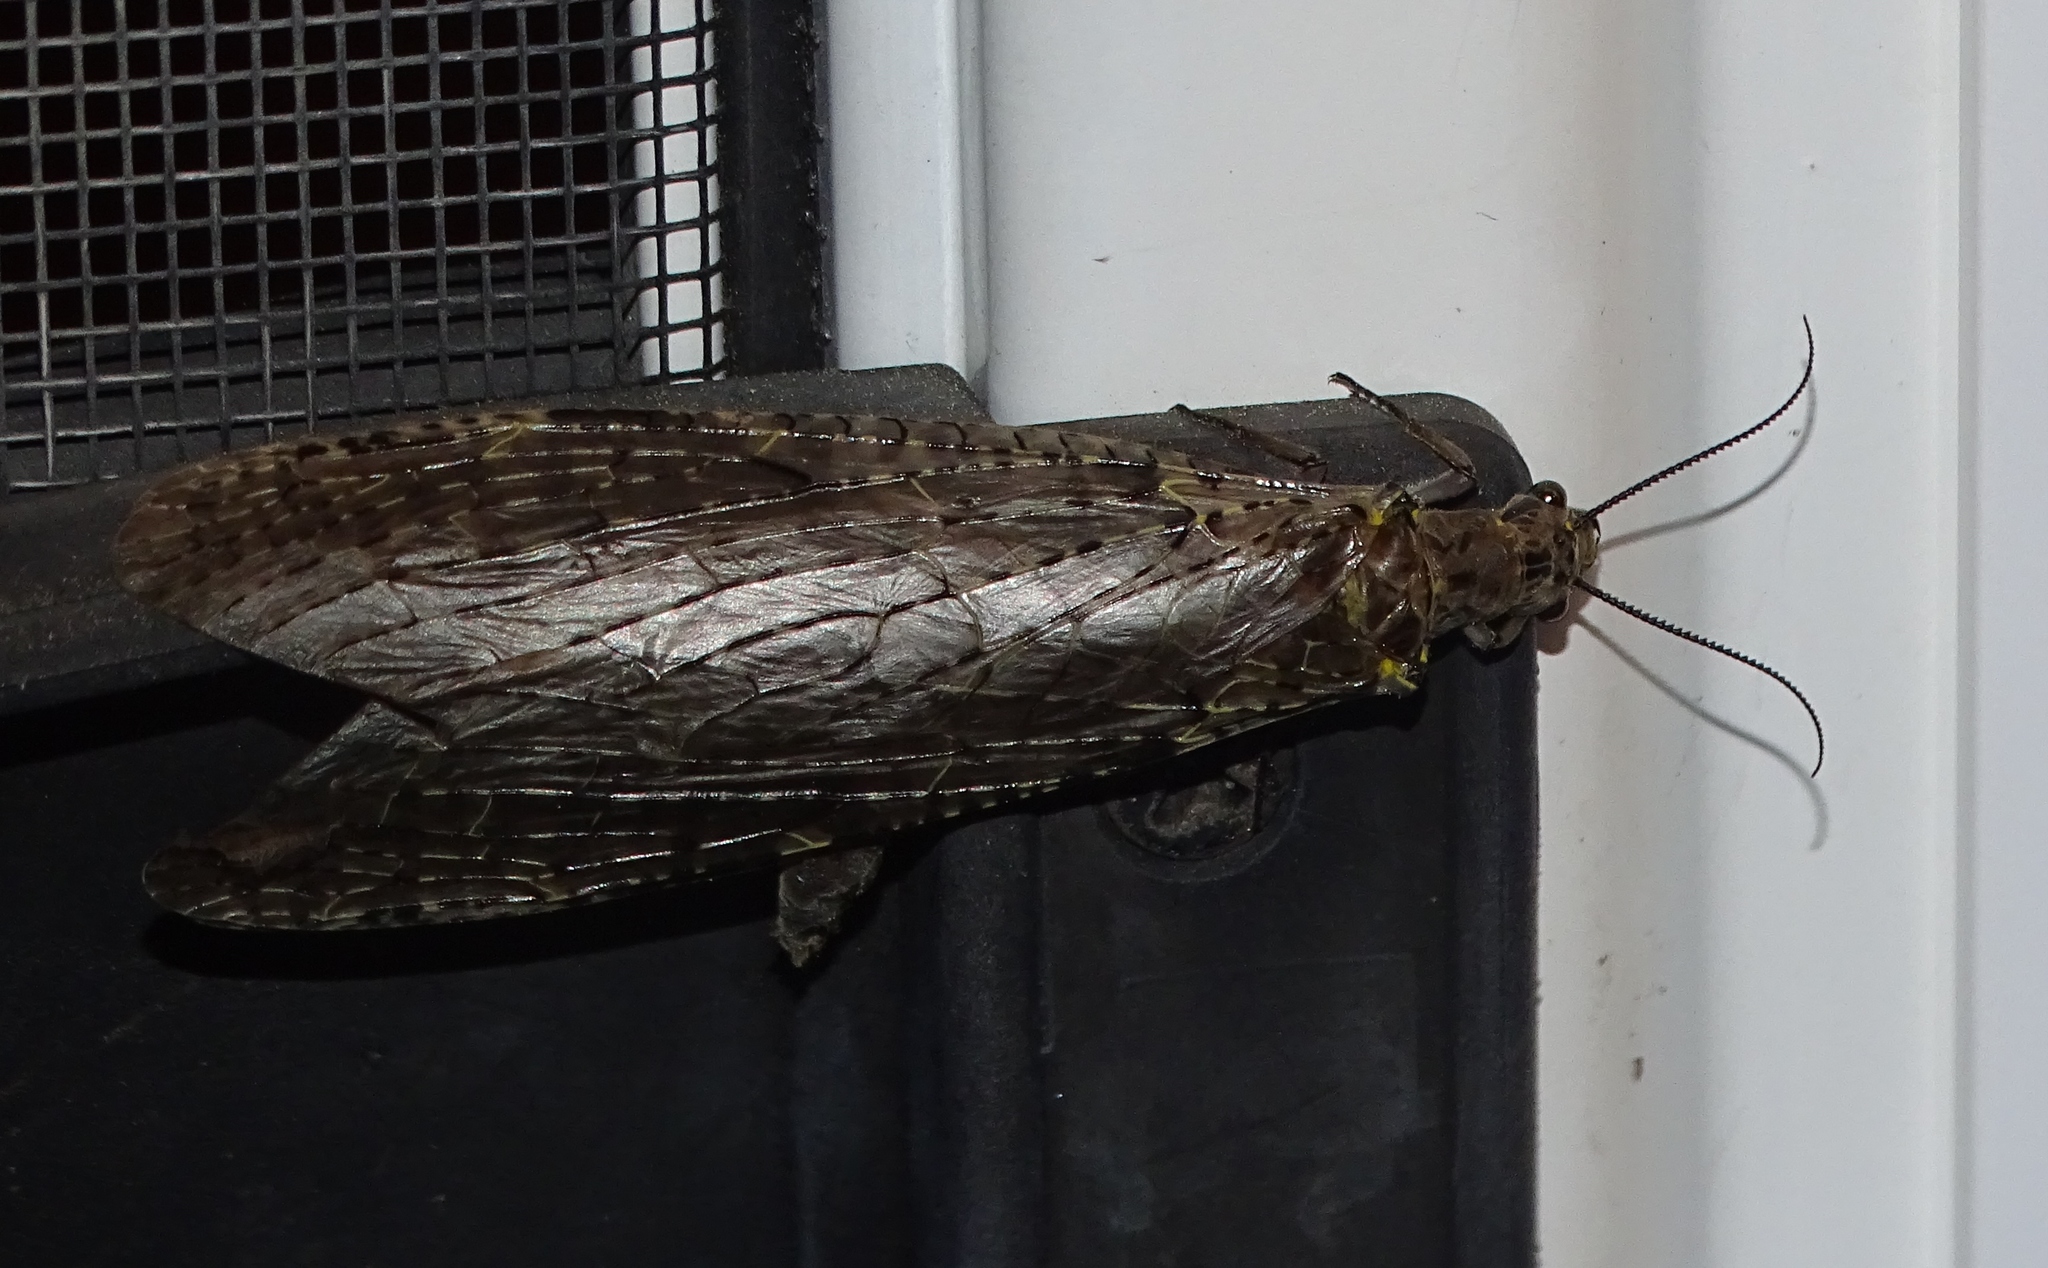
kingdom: Animalia
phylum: Arthropoda
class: Insecta
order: Megaloptera
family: Corydalidae
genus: Chauliodes
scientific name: Chauliodes rastricornis
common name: Spring fishfly
